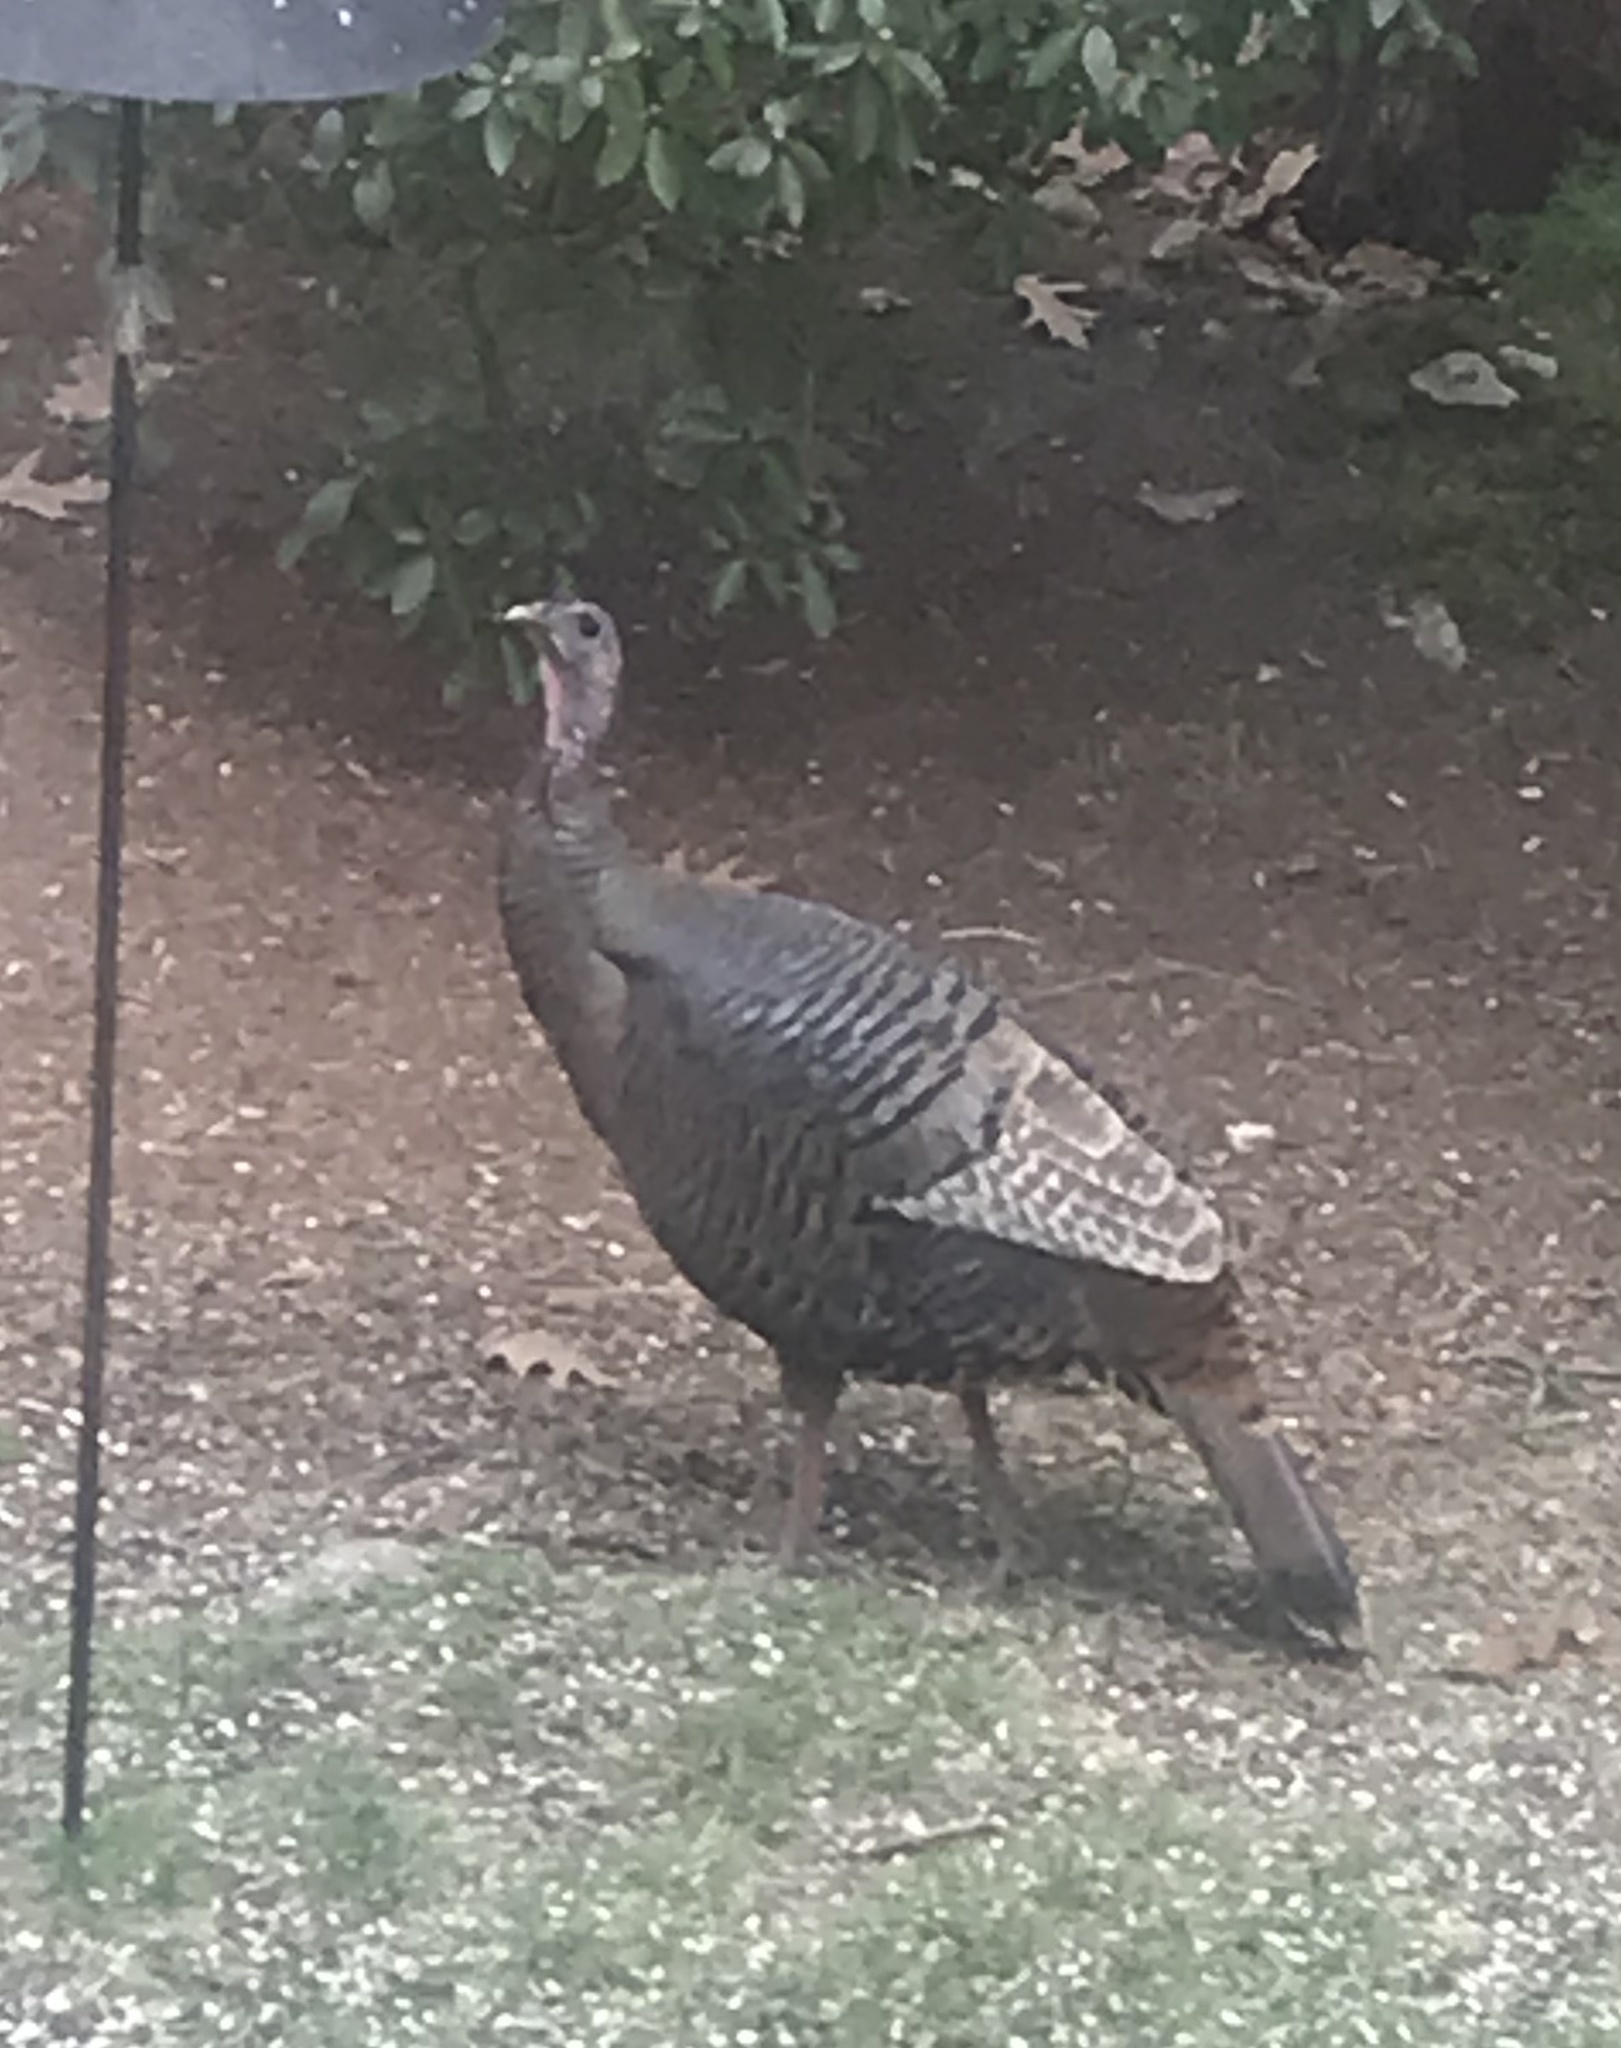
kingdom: Animalia
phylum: Chordata
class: Aves
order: Galliformes
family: Phasianidae
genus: Meleagris
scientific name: Meleagris gallopavo
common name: Wild turkey
